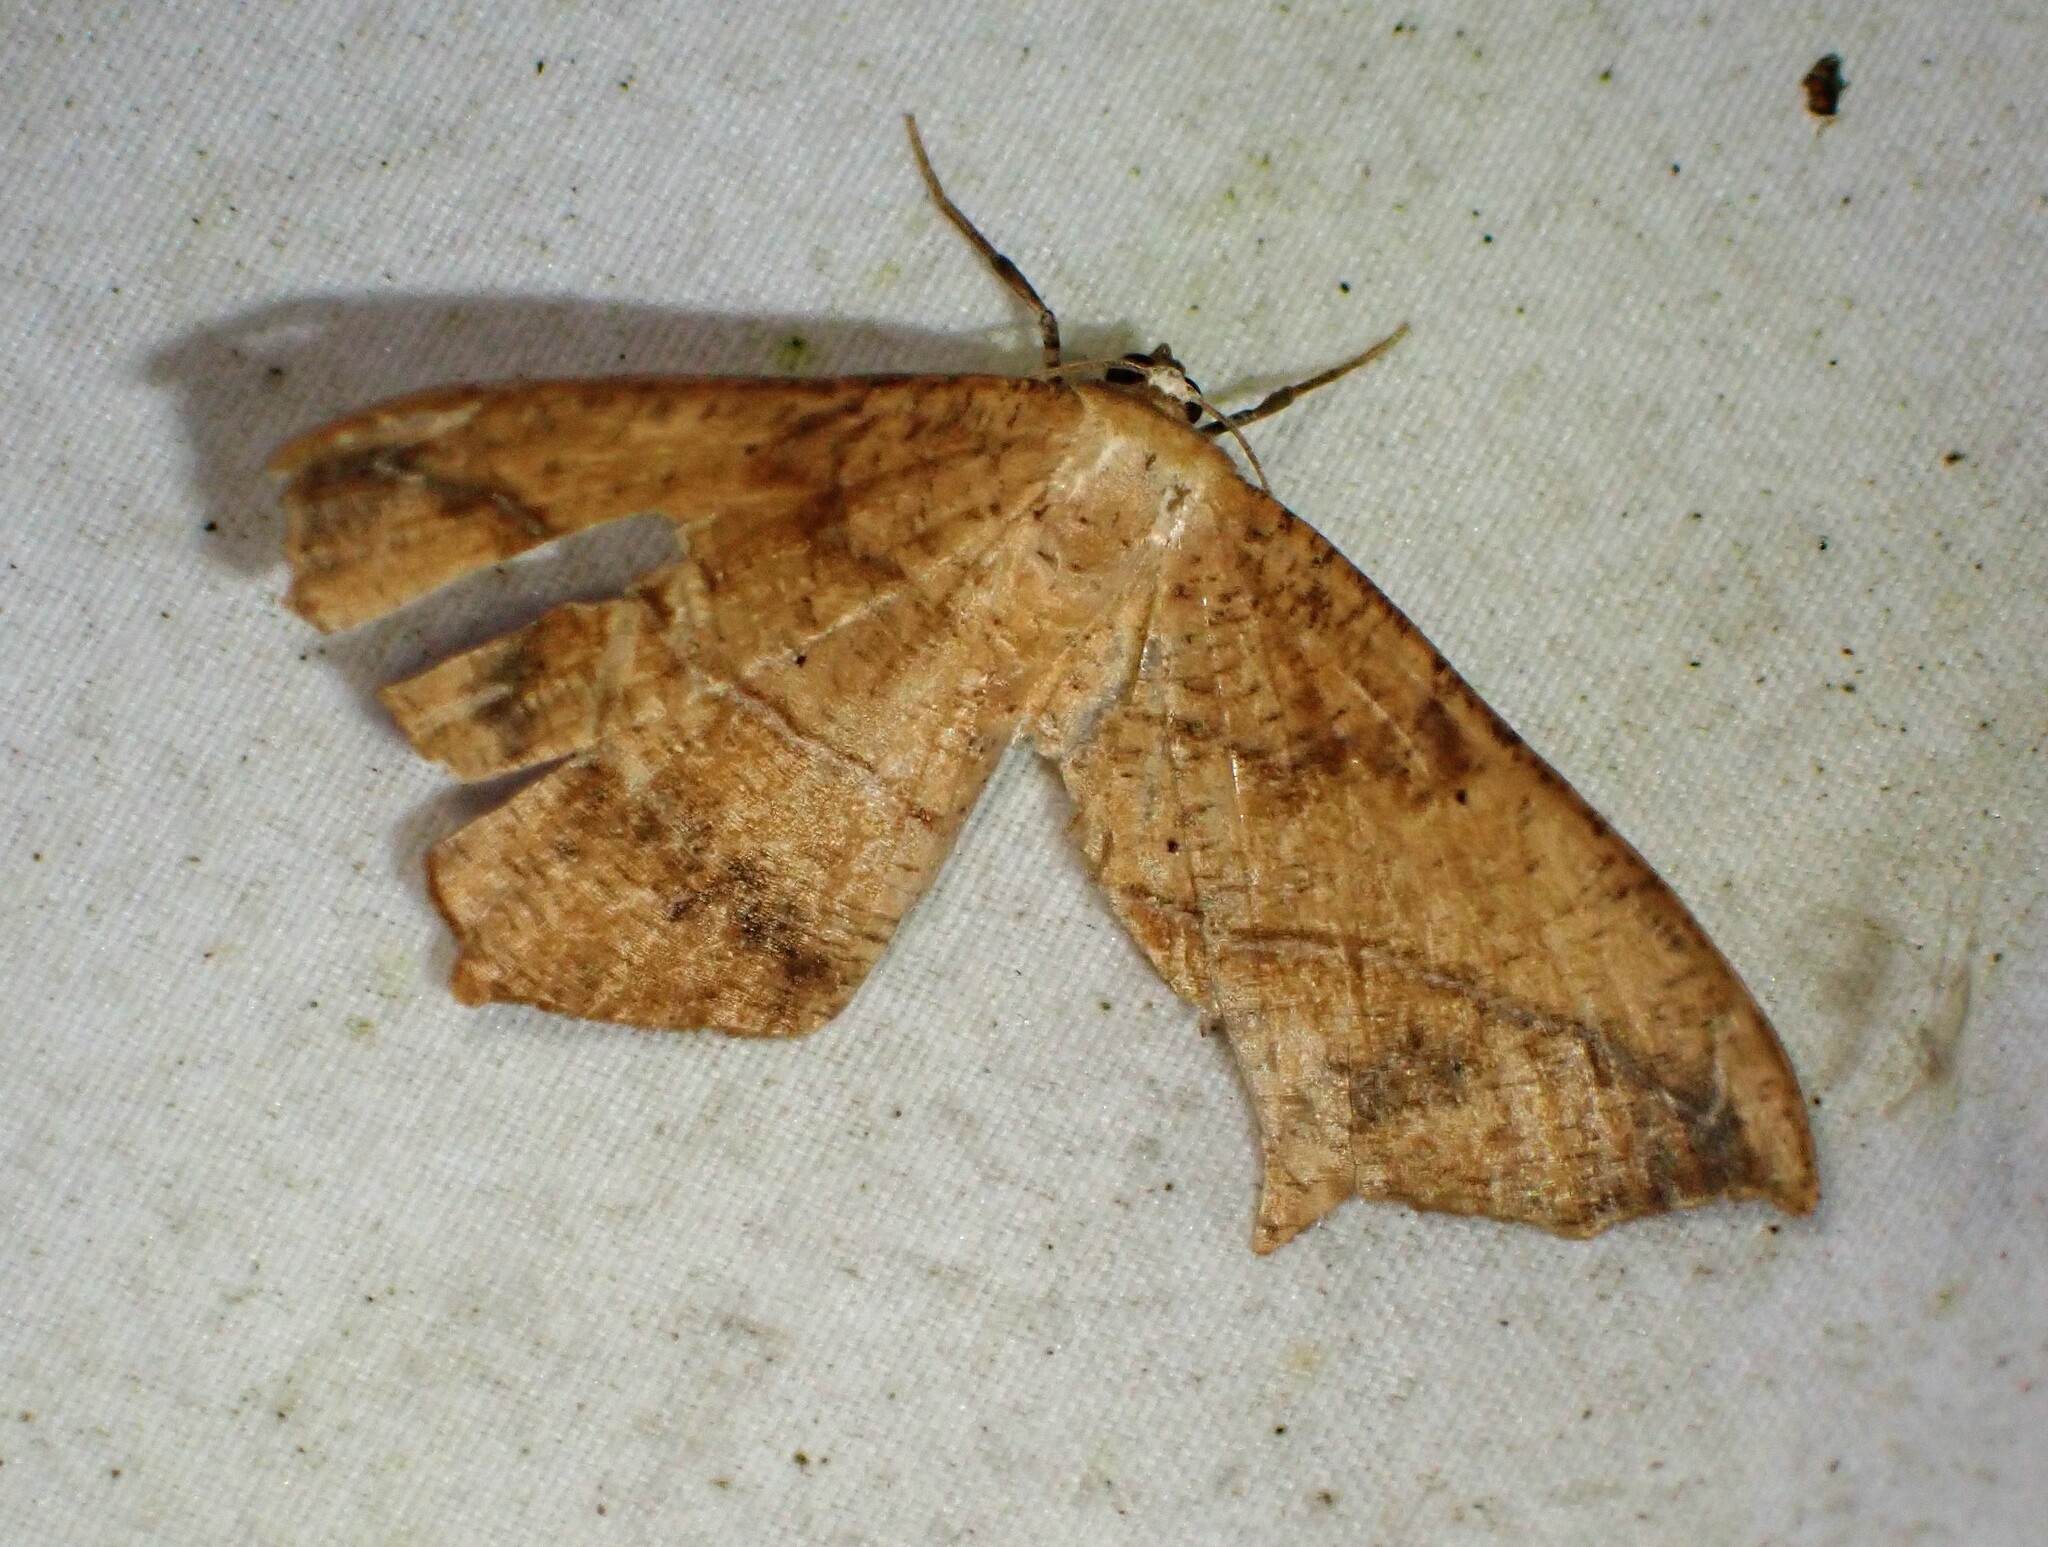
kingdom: Animalia
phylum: Arthropoda
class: Insecta
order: Lepidoptera
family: Geometridae
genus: Prochoerodes
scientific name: Prochoerodes lineola
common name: Large maple spanworm
